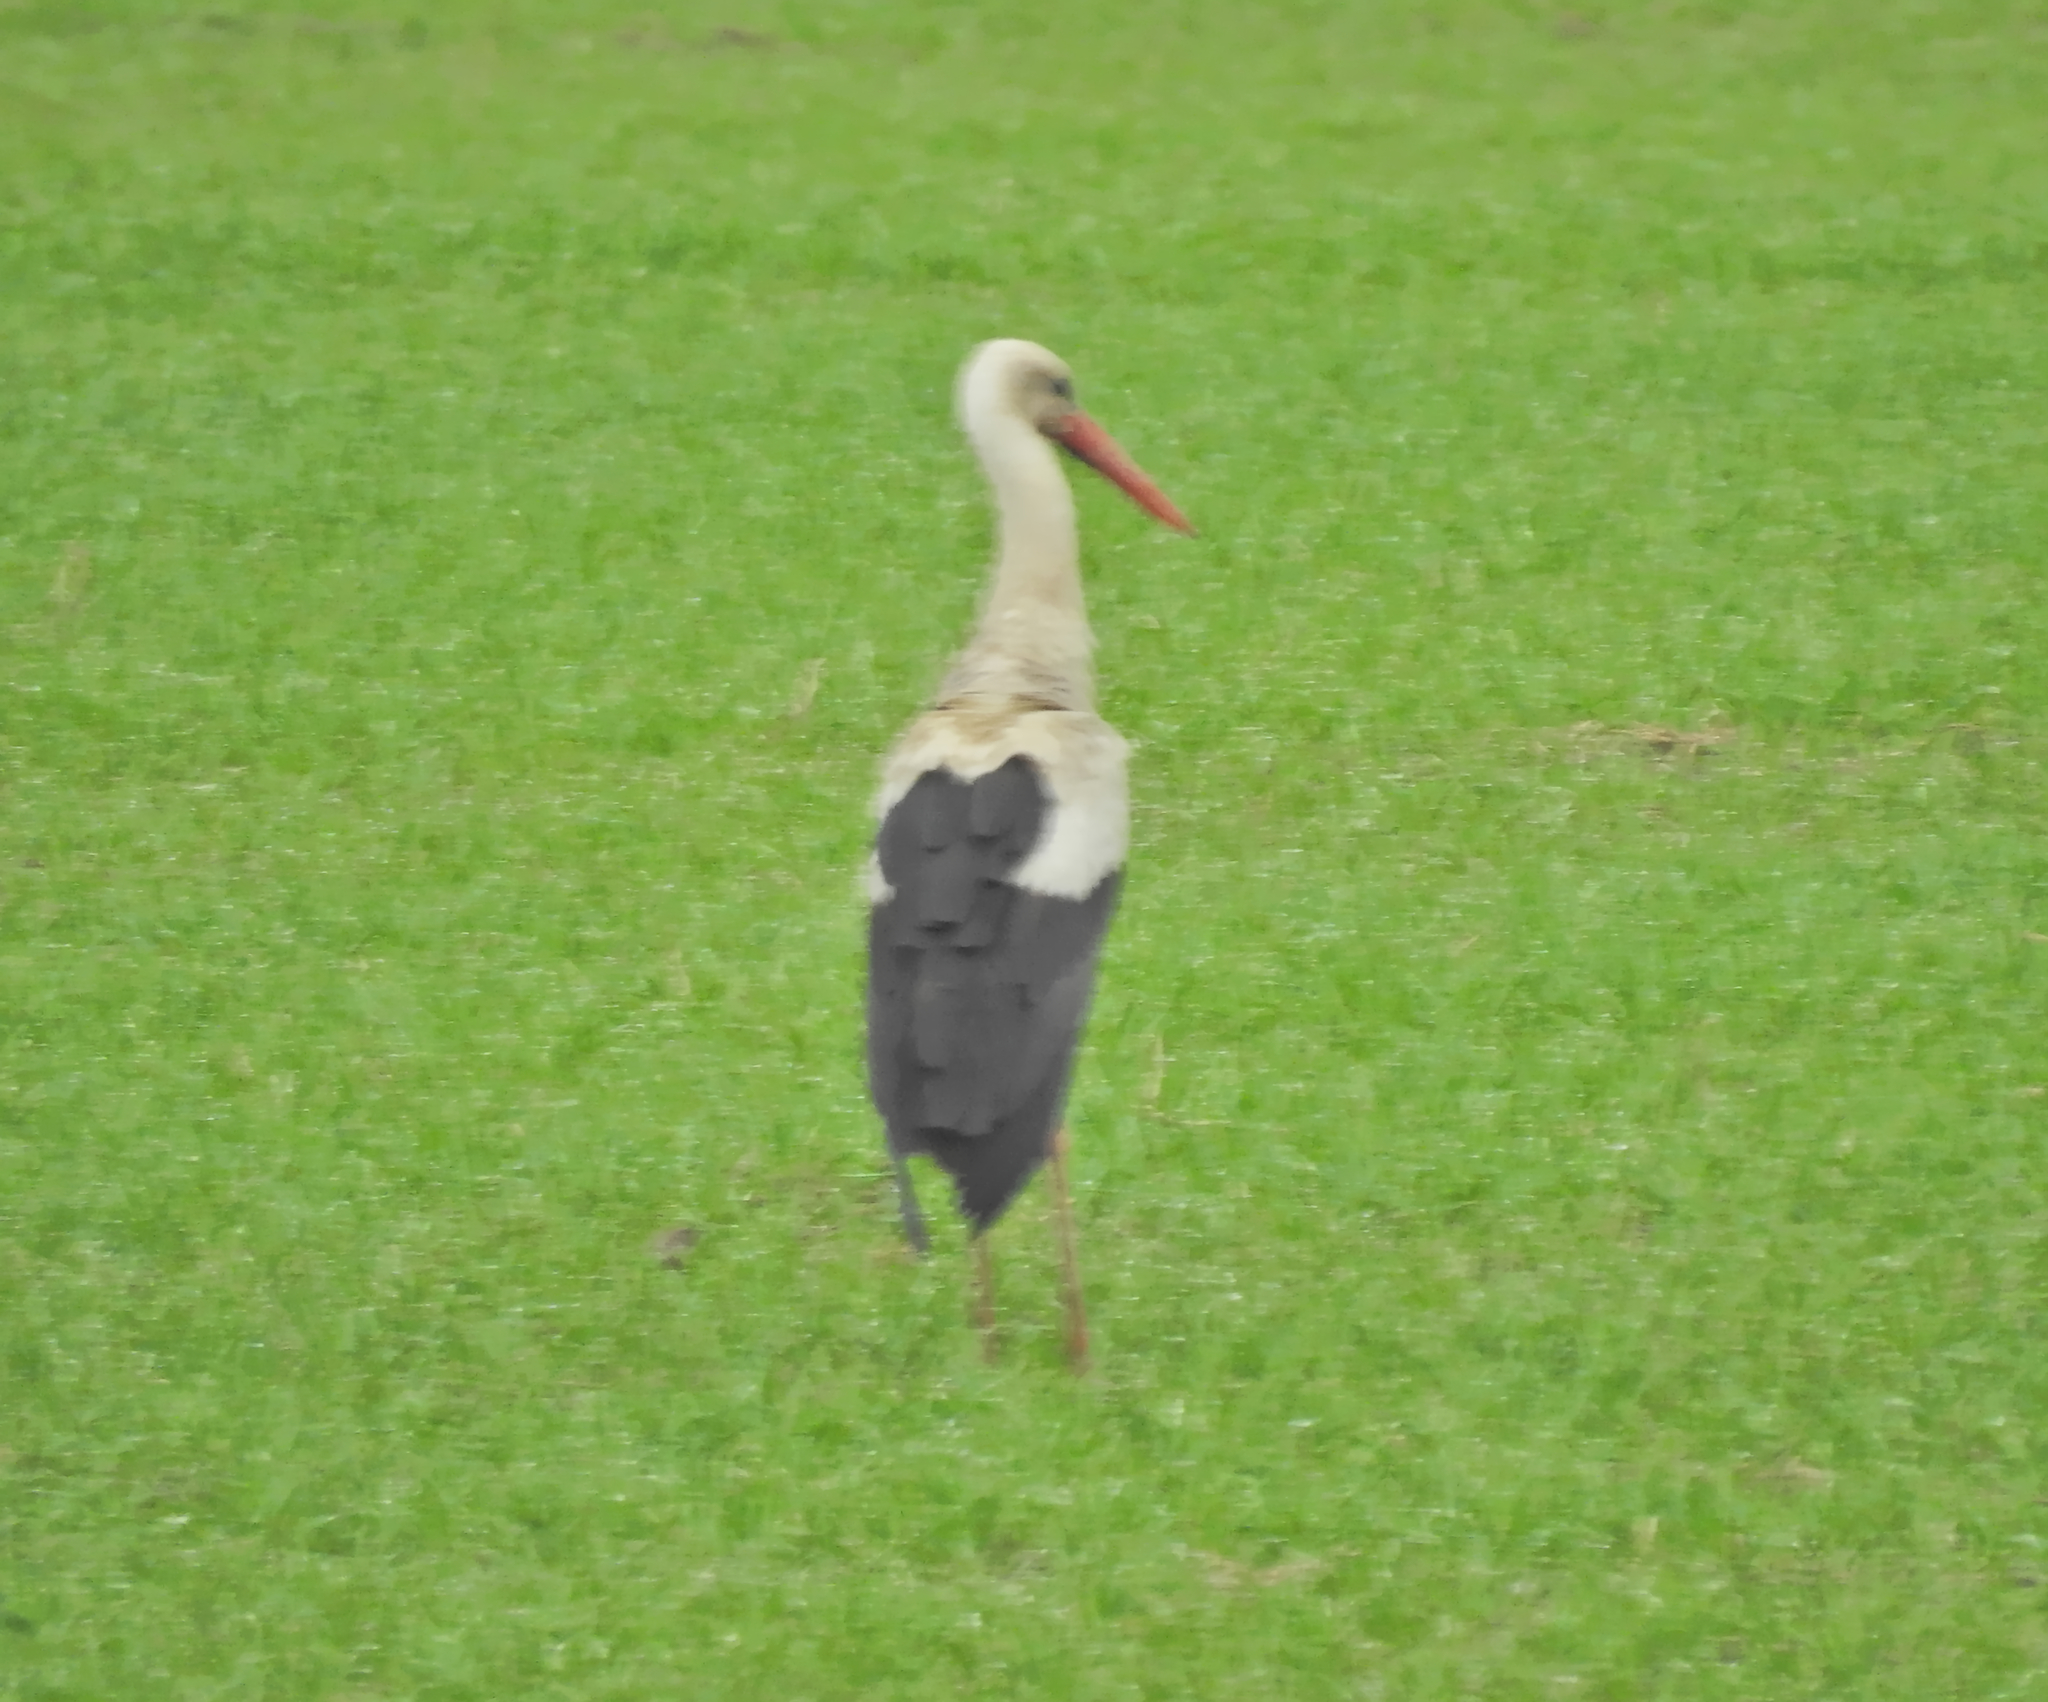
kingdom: Animalia
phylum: Chordata
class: Aves
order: Ciconiiformes
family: Ciconiidae
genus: Ciconia
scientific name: Ciconia ciconia
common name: White stork
